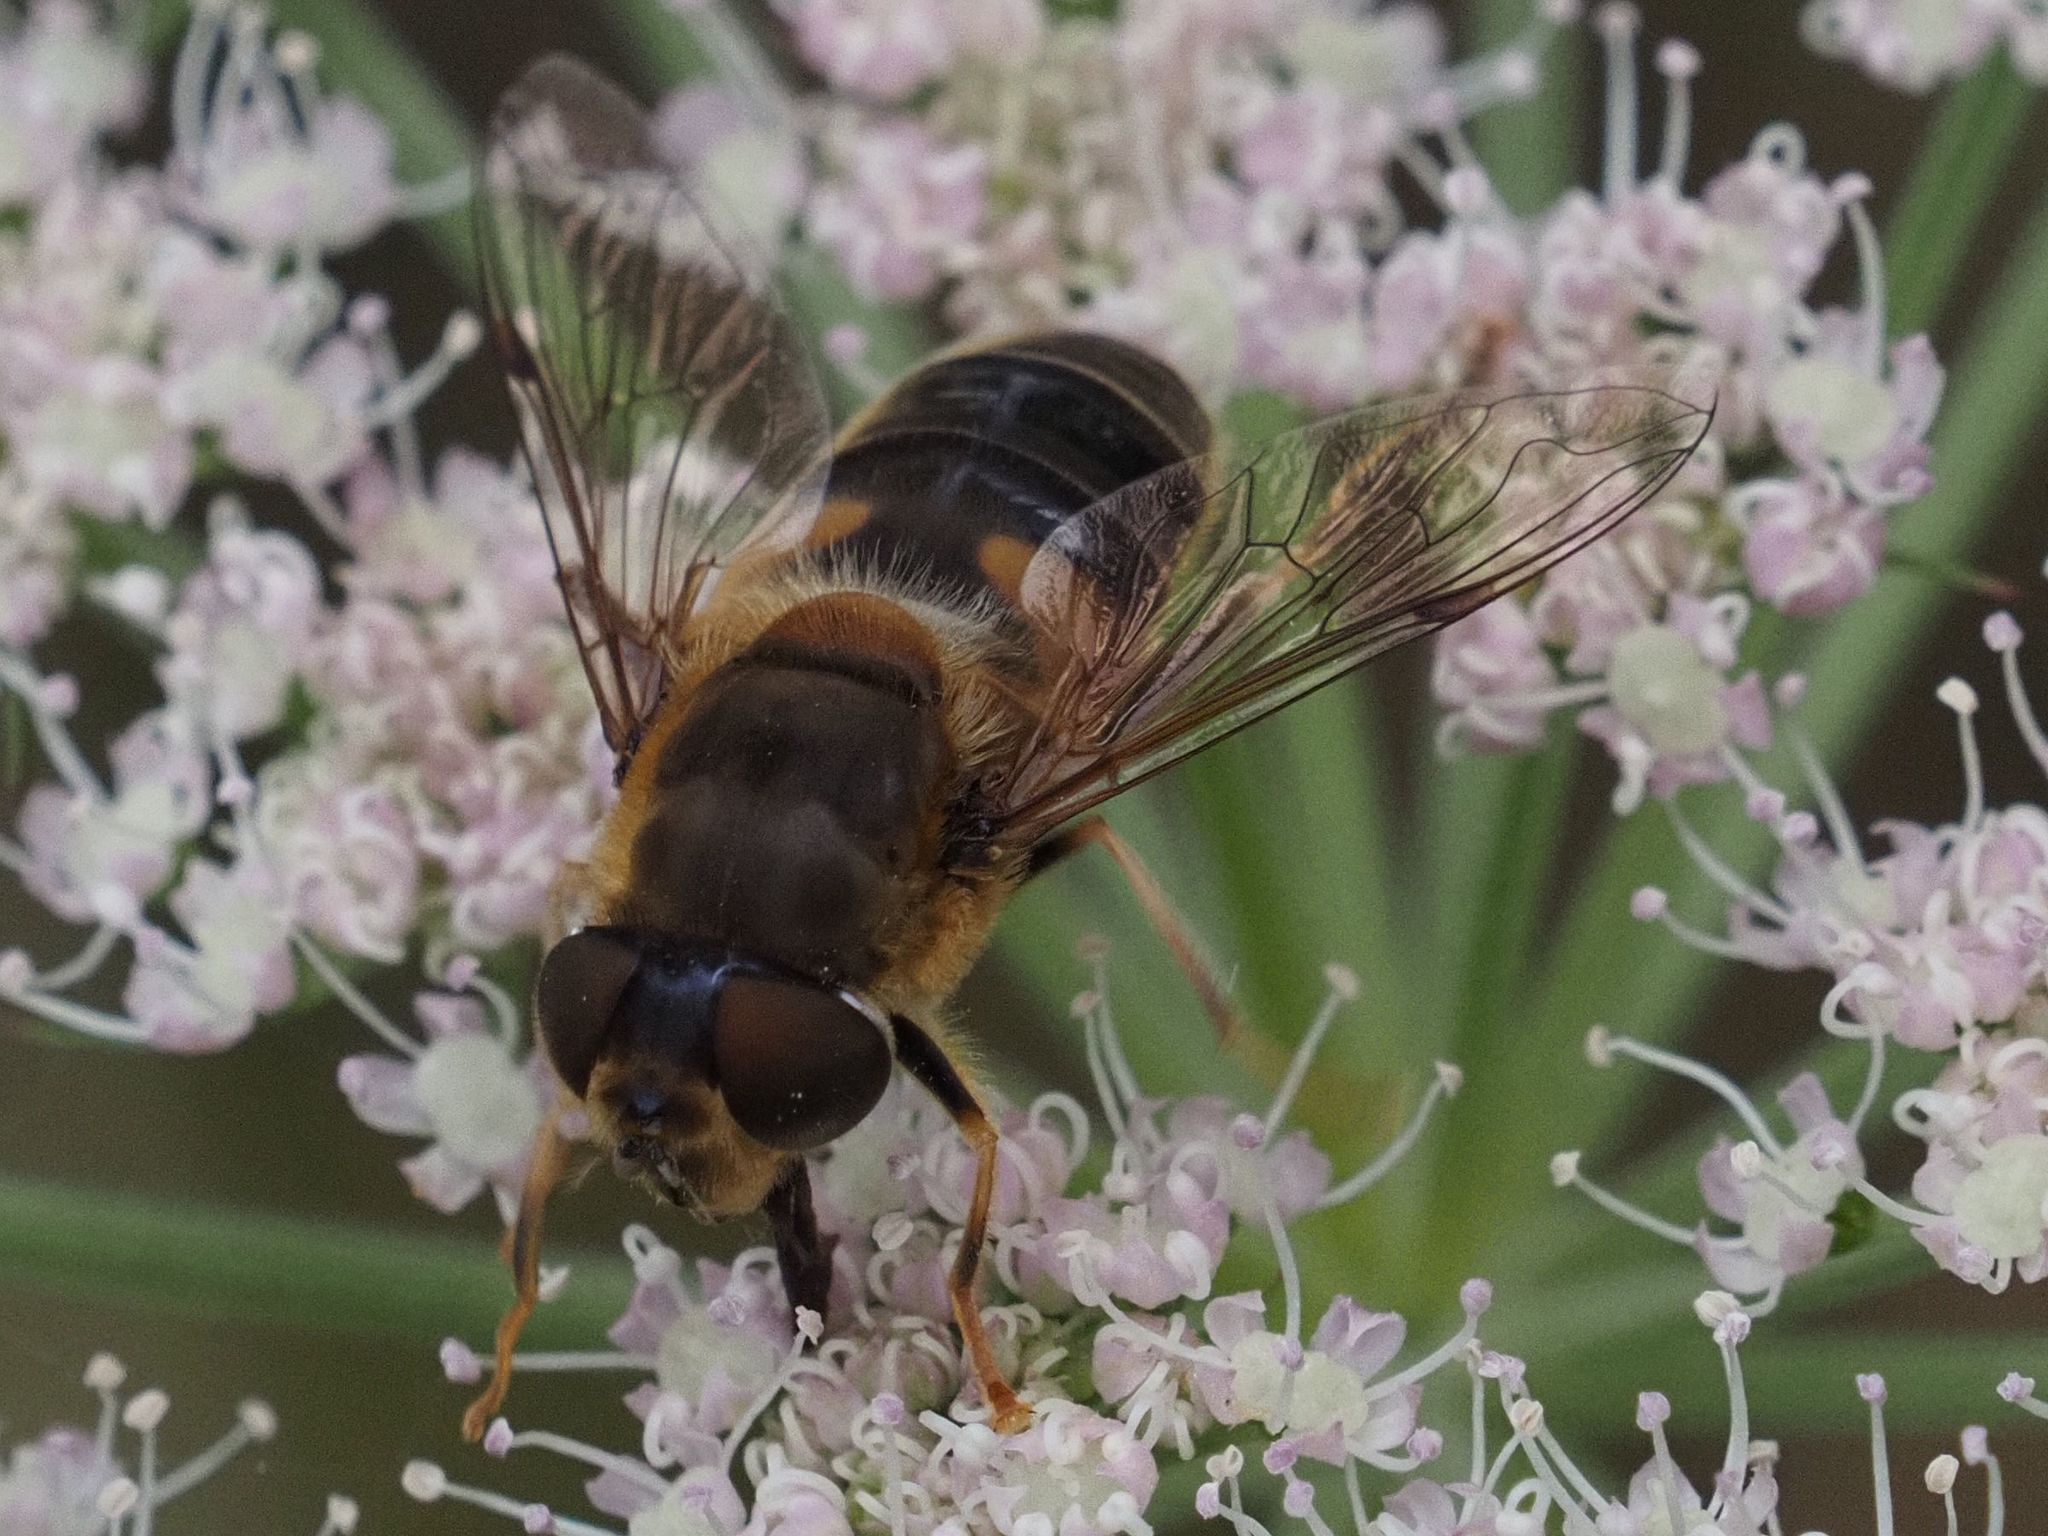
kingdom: Animalia
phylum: Arthropoda
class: Insecta
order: Diptera
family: Syrphidae
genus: Eristalis
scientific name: Eristalis pertinax
